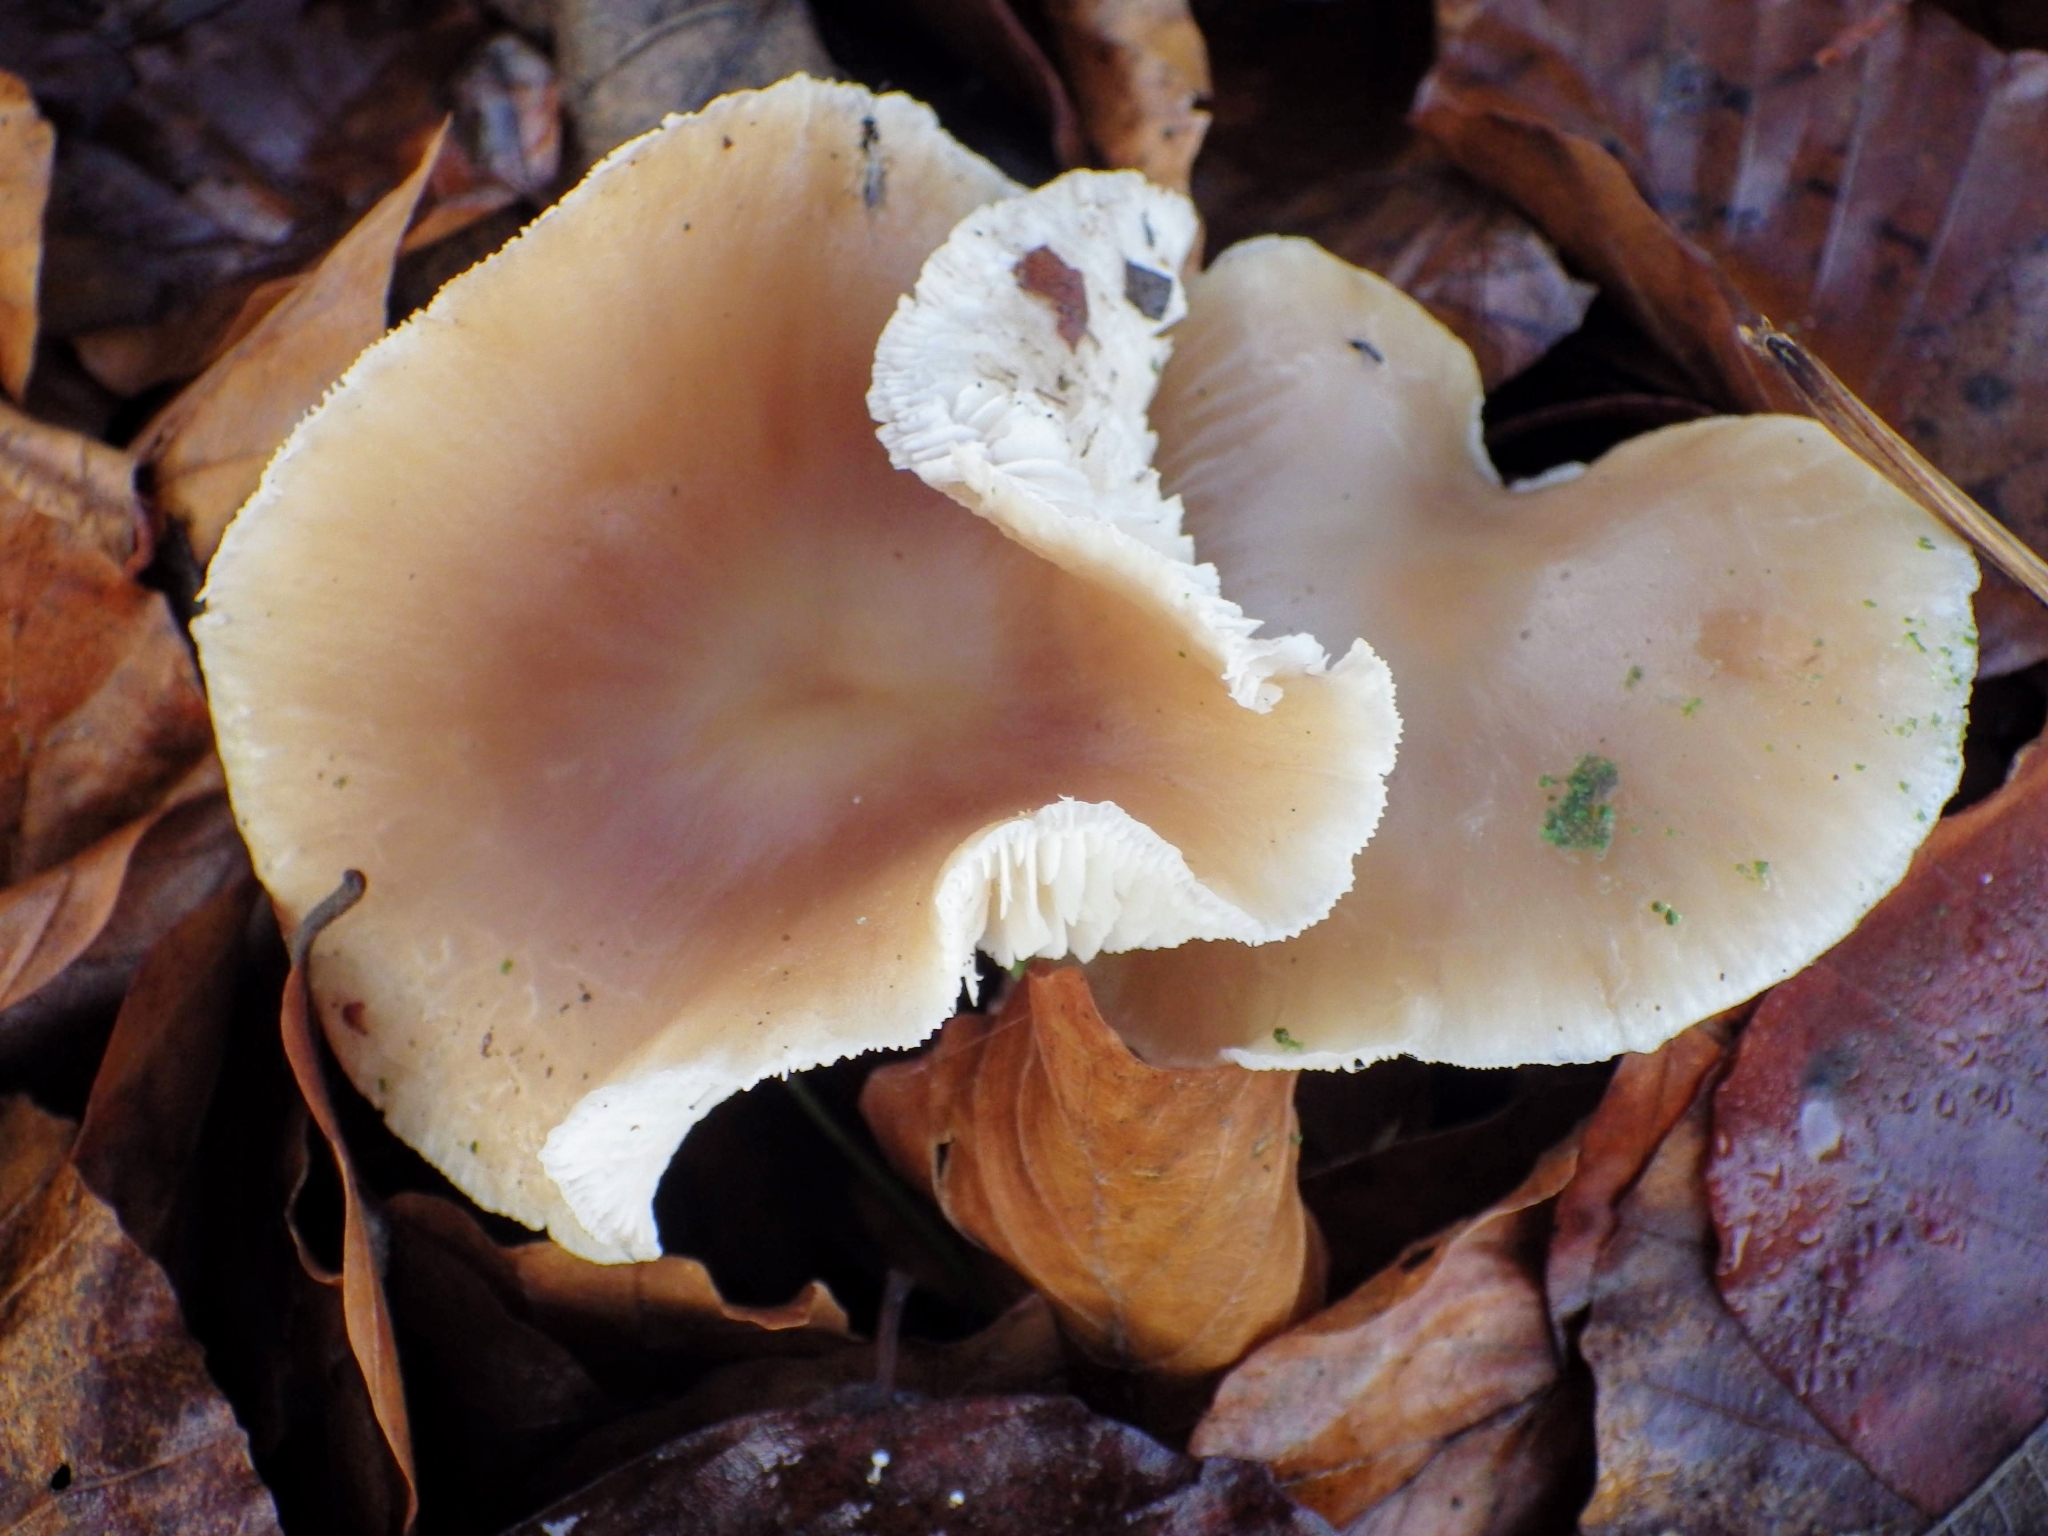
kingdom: Fungi
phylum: Basidiomycota
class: Agaricomycetes
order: Agaricales
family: Omphalotaceae
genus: Rhodocollybia
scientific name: Rhodocollybia butyracea
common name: Butter cap
